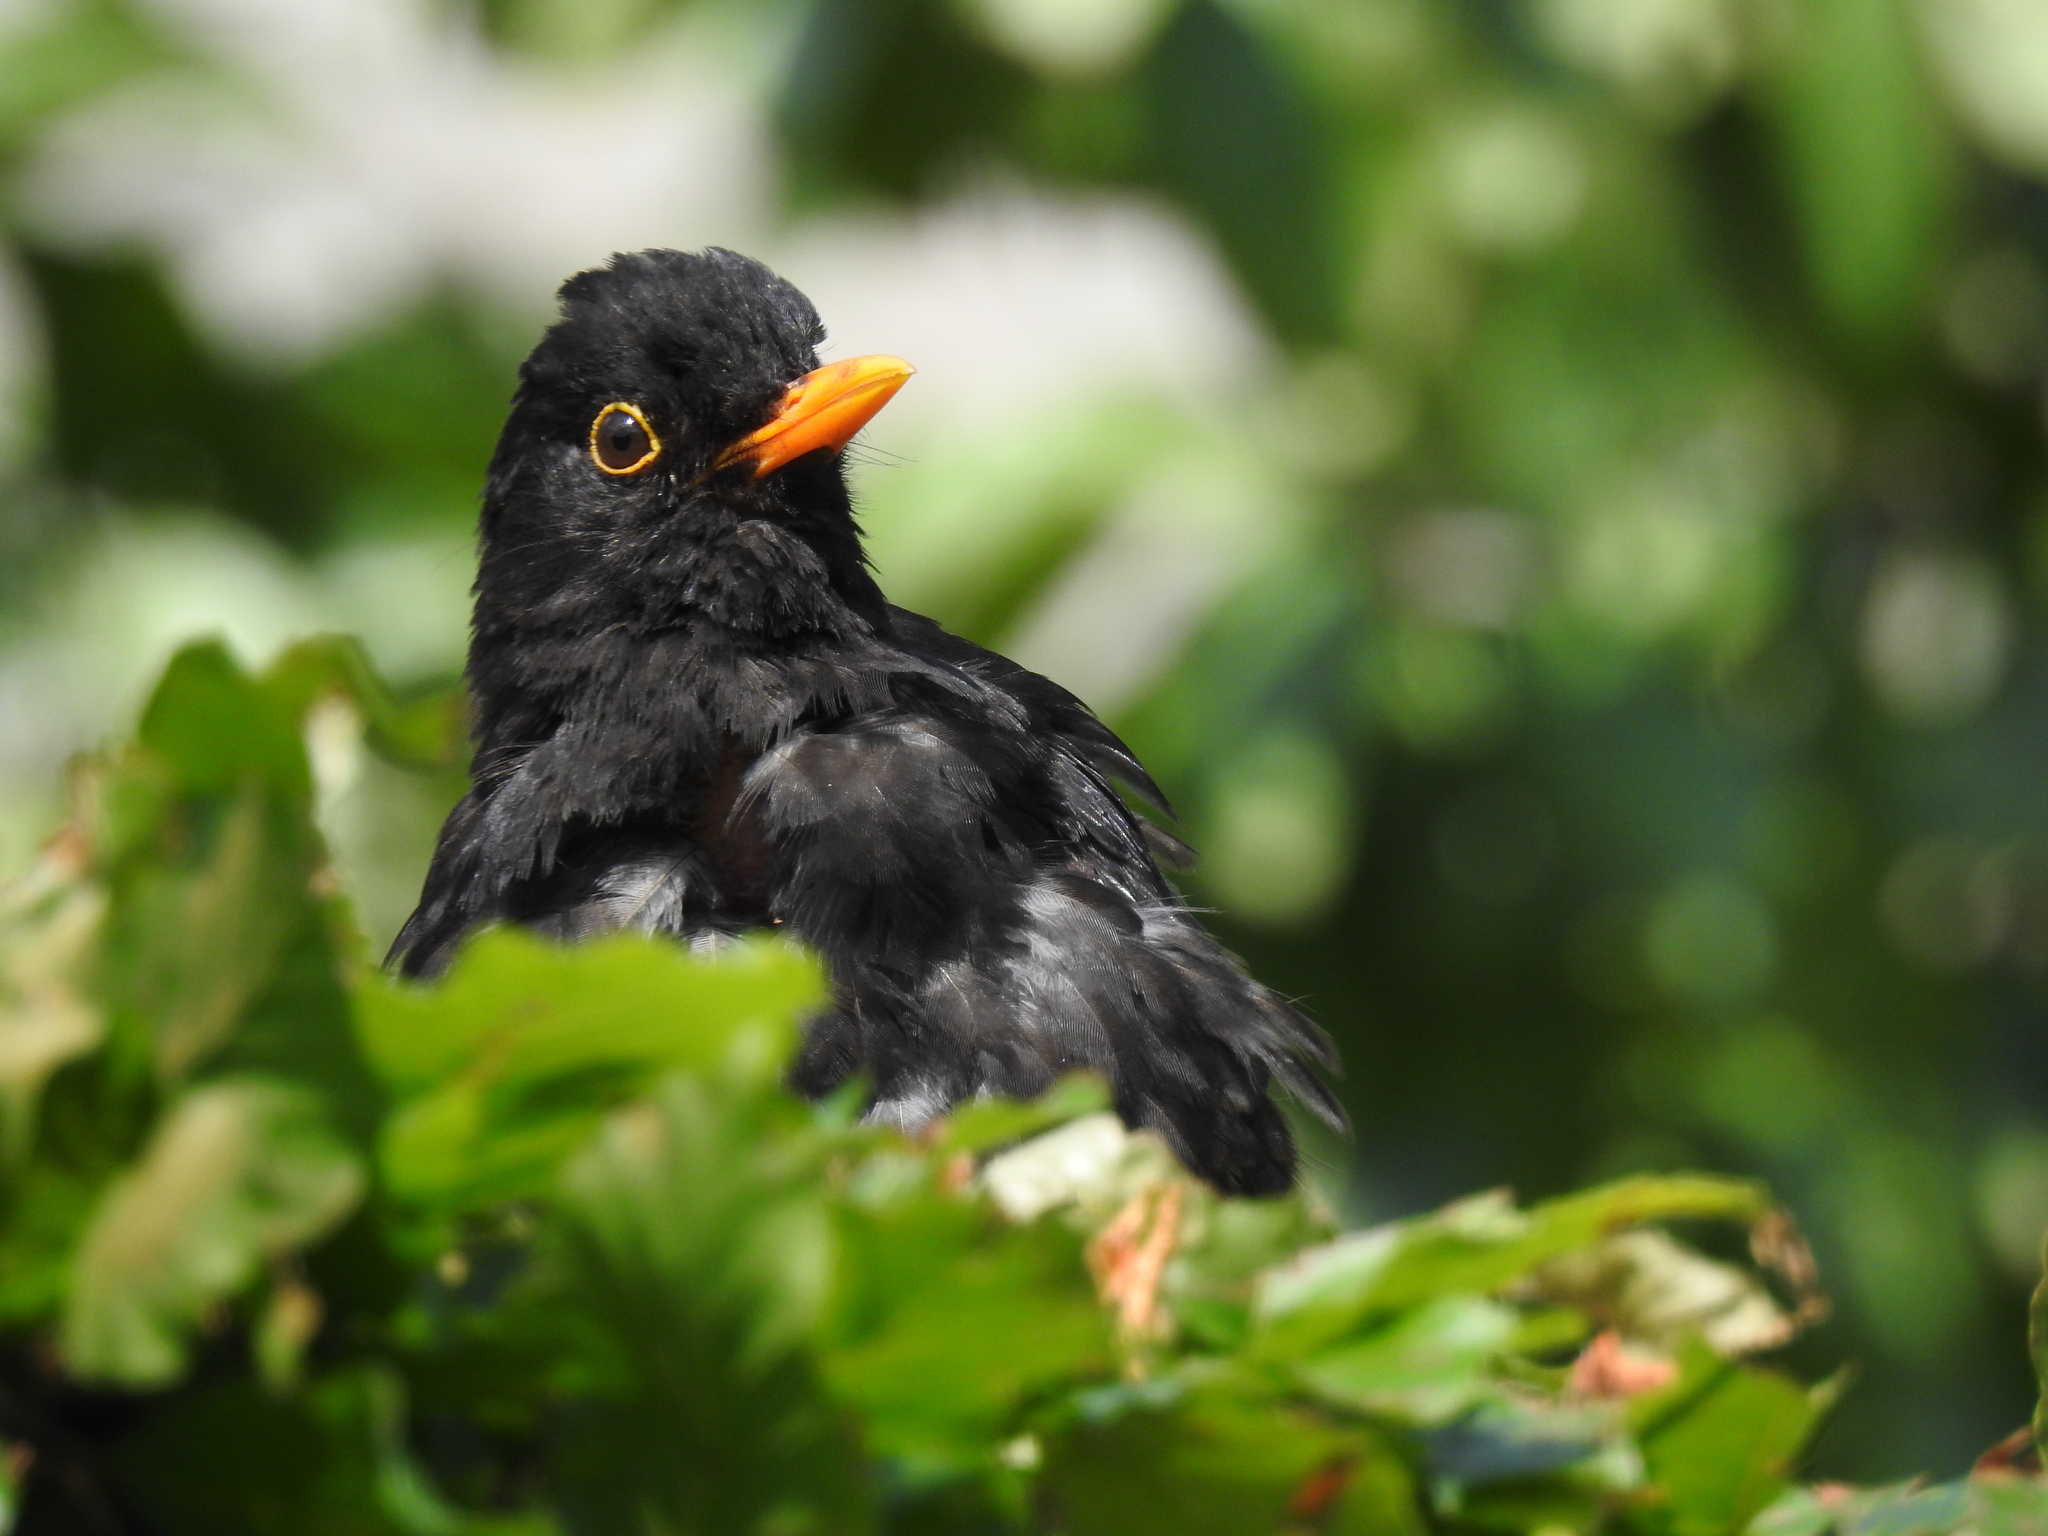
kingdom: Animalia
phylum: Chordata
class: Aves
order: Passeriformes
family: Turdidae
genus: Turdus
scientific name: Turdus merula
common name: Common blackbird
